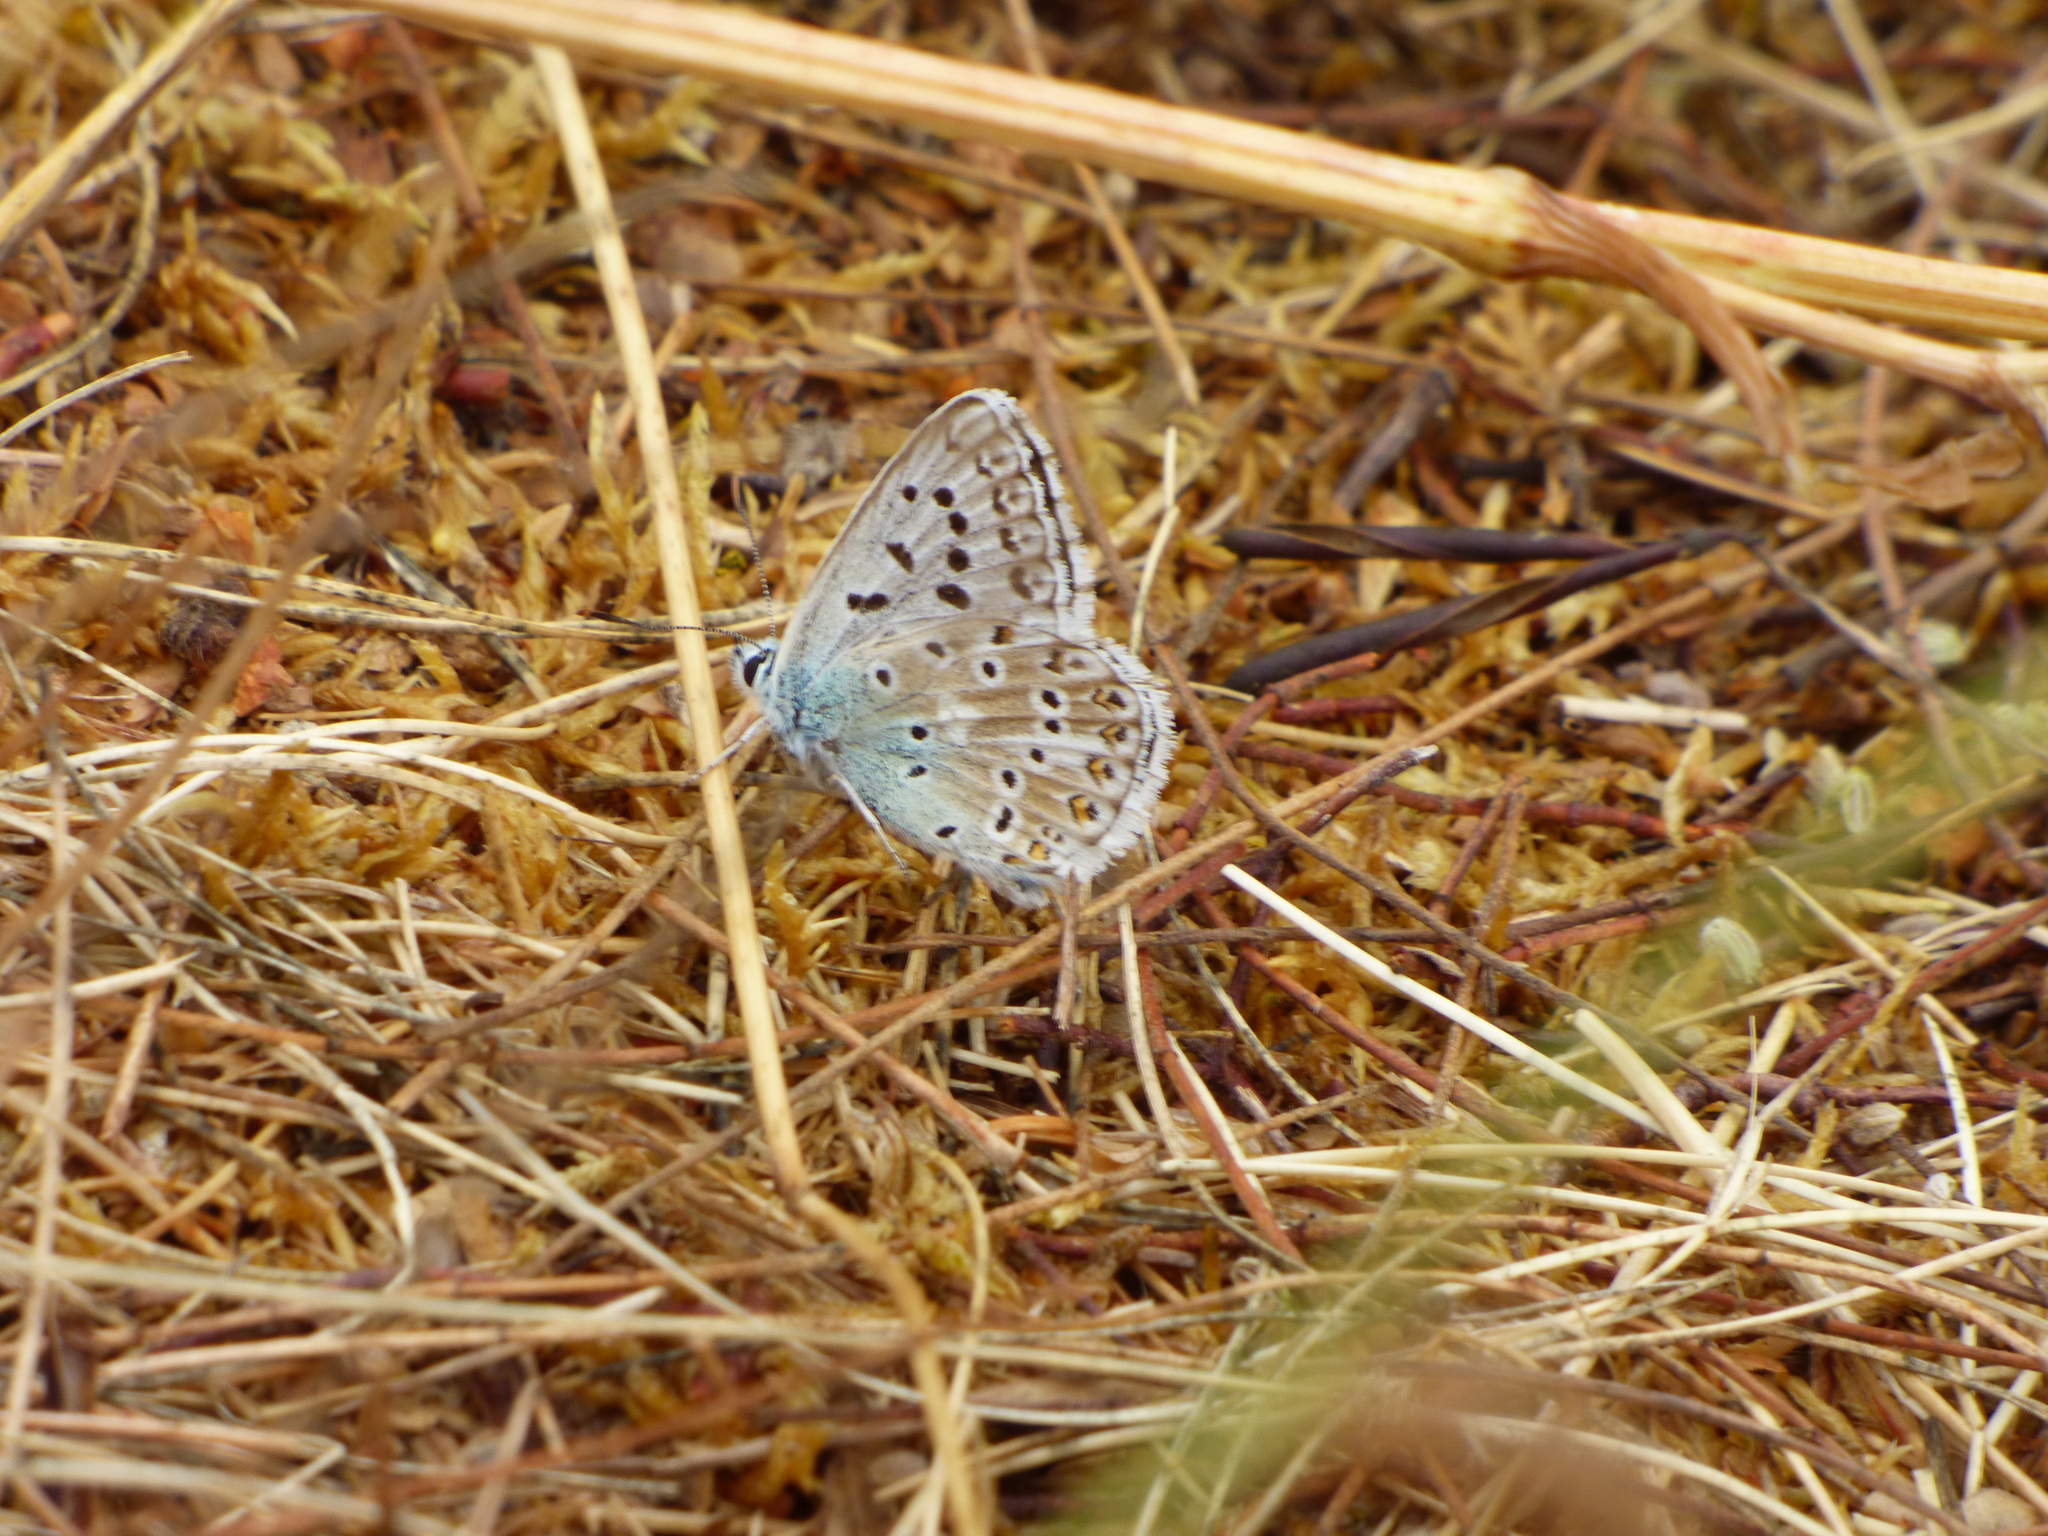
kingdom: Animalia
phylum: Arthropoda
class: Insecta
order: Lepidoptera
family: Lycaenidae
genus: Lysandra
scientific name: Lysandra coridon
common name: Chalkhill blue
